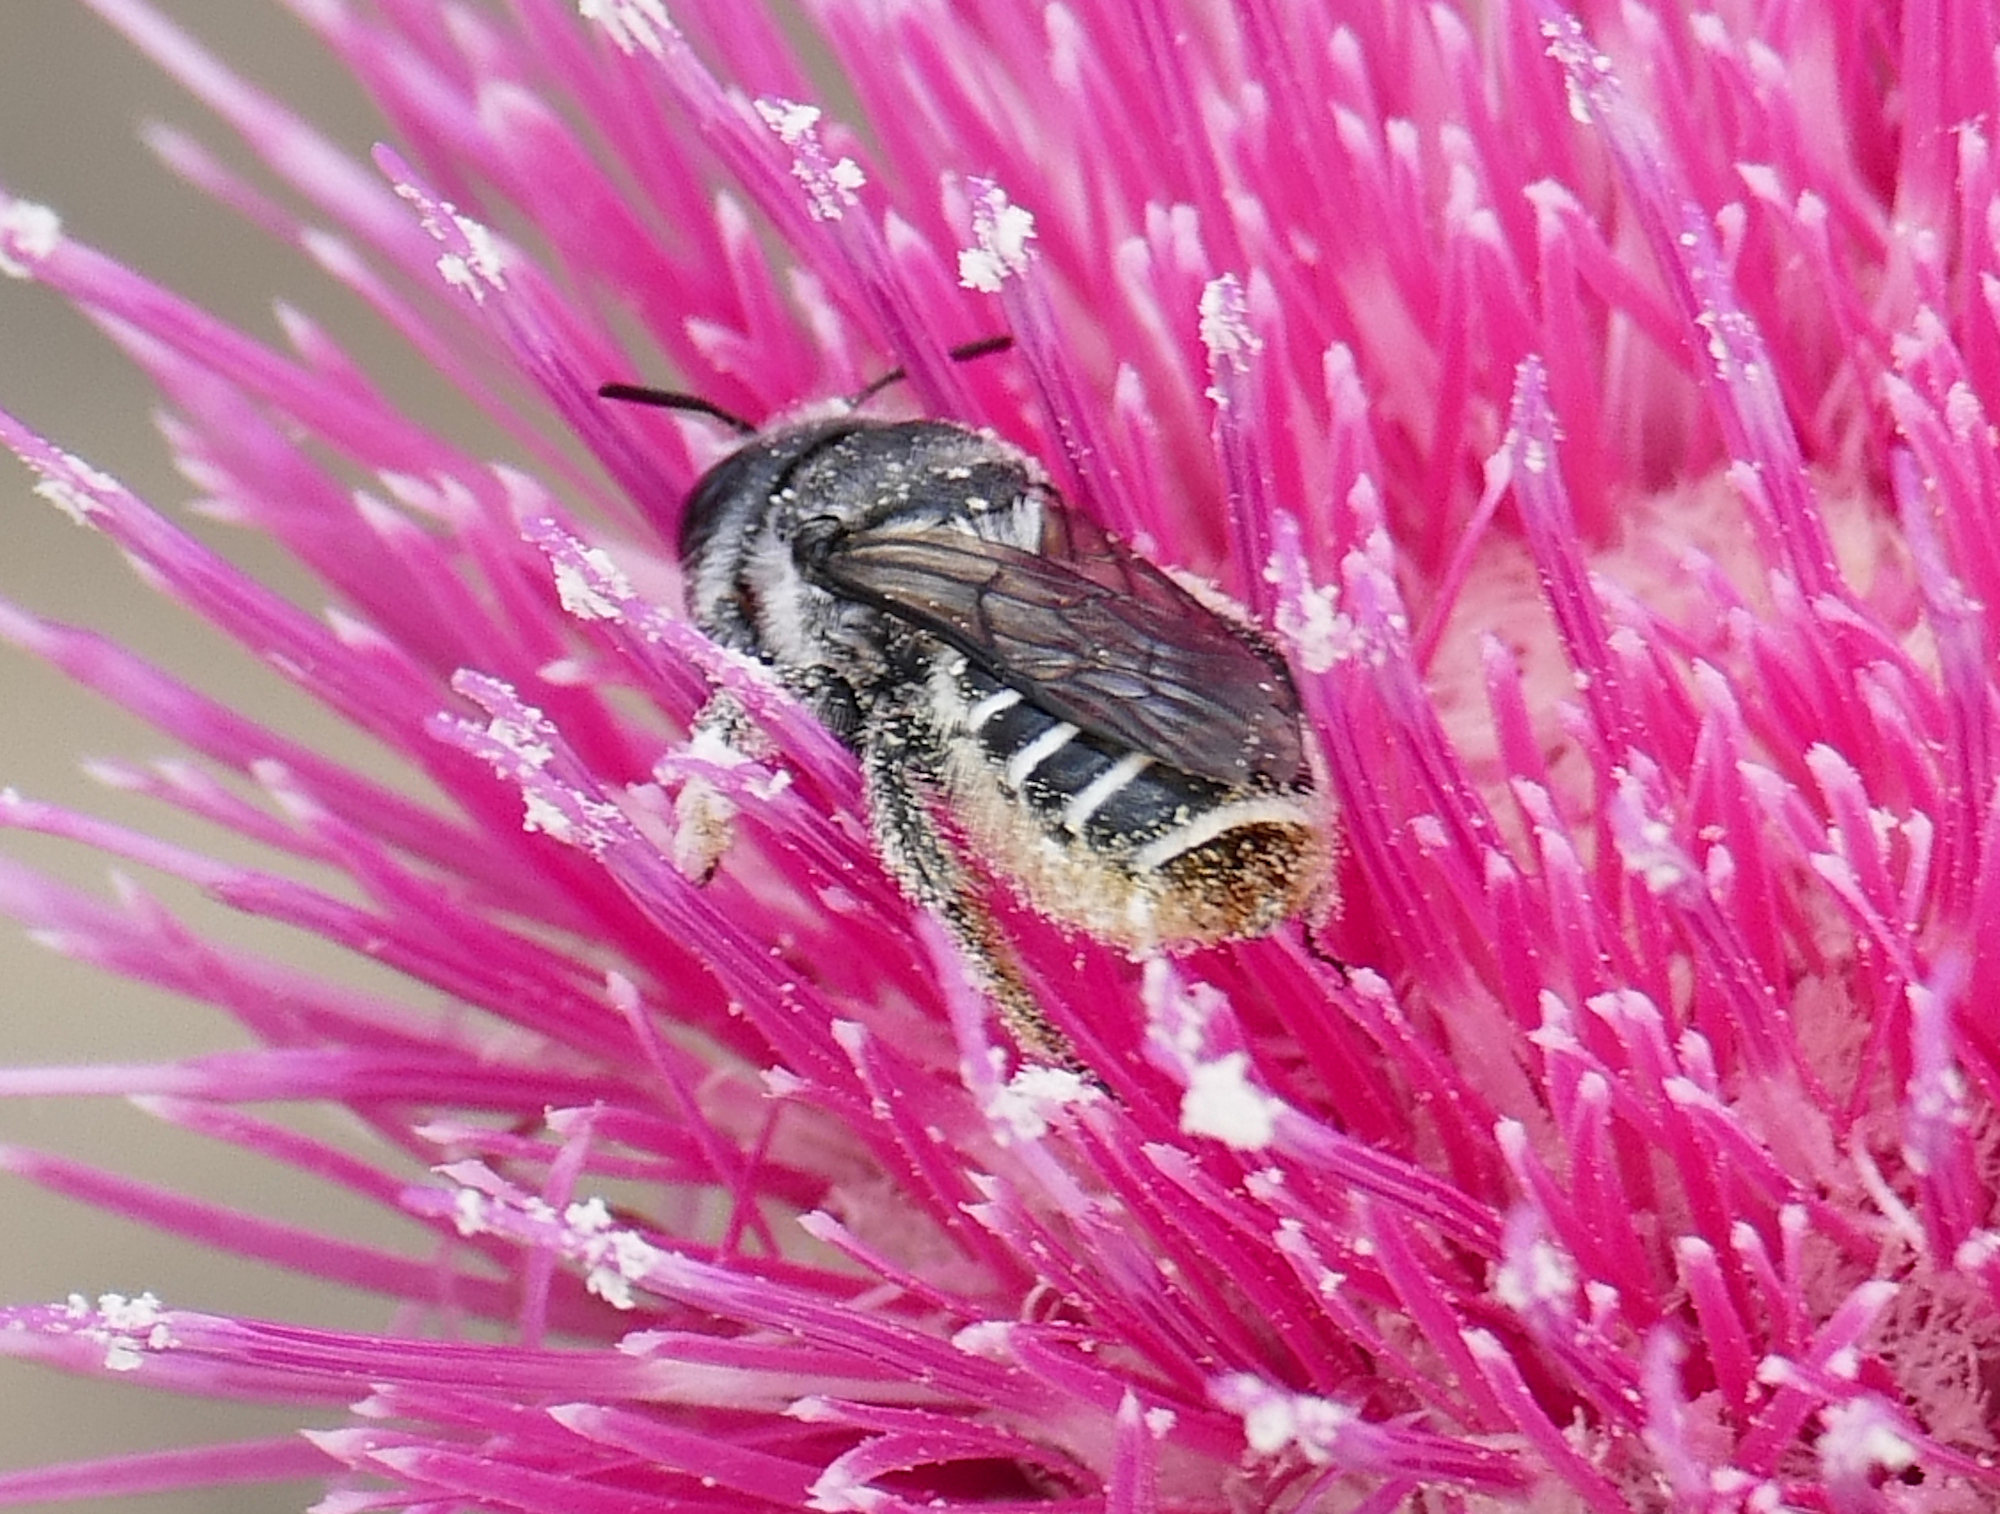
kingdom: Animalia
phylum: Arthropoda
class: Insecta
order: Hymenoptera
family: Megachilidae
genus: Lithurgopsis
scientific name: Lithurgopsis apicalis
